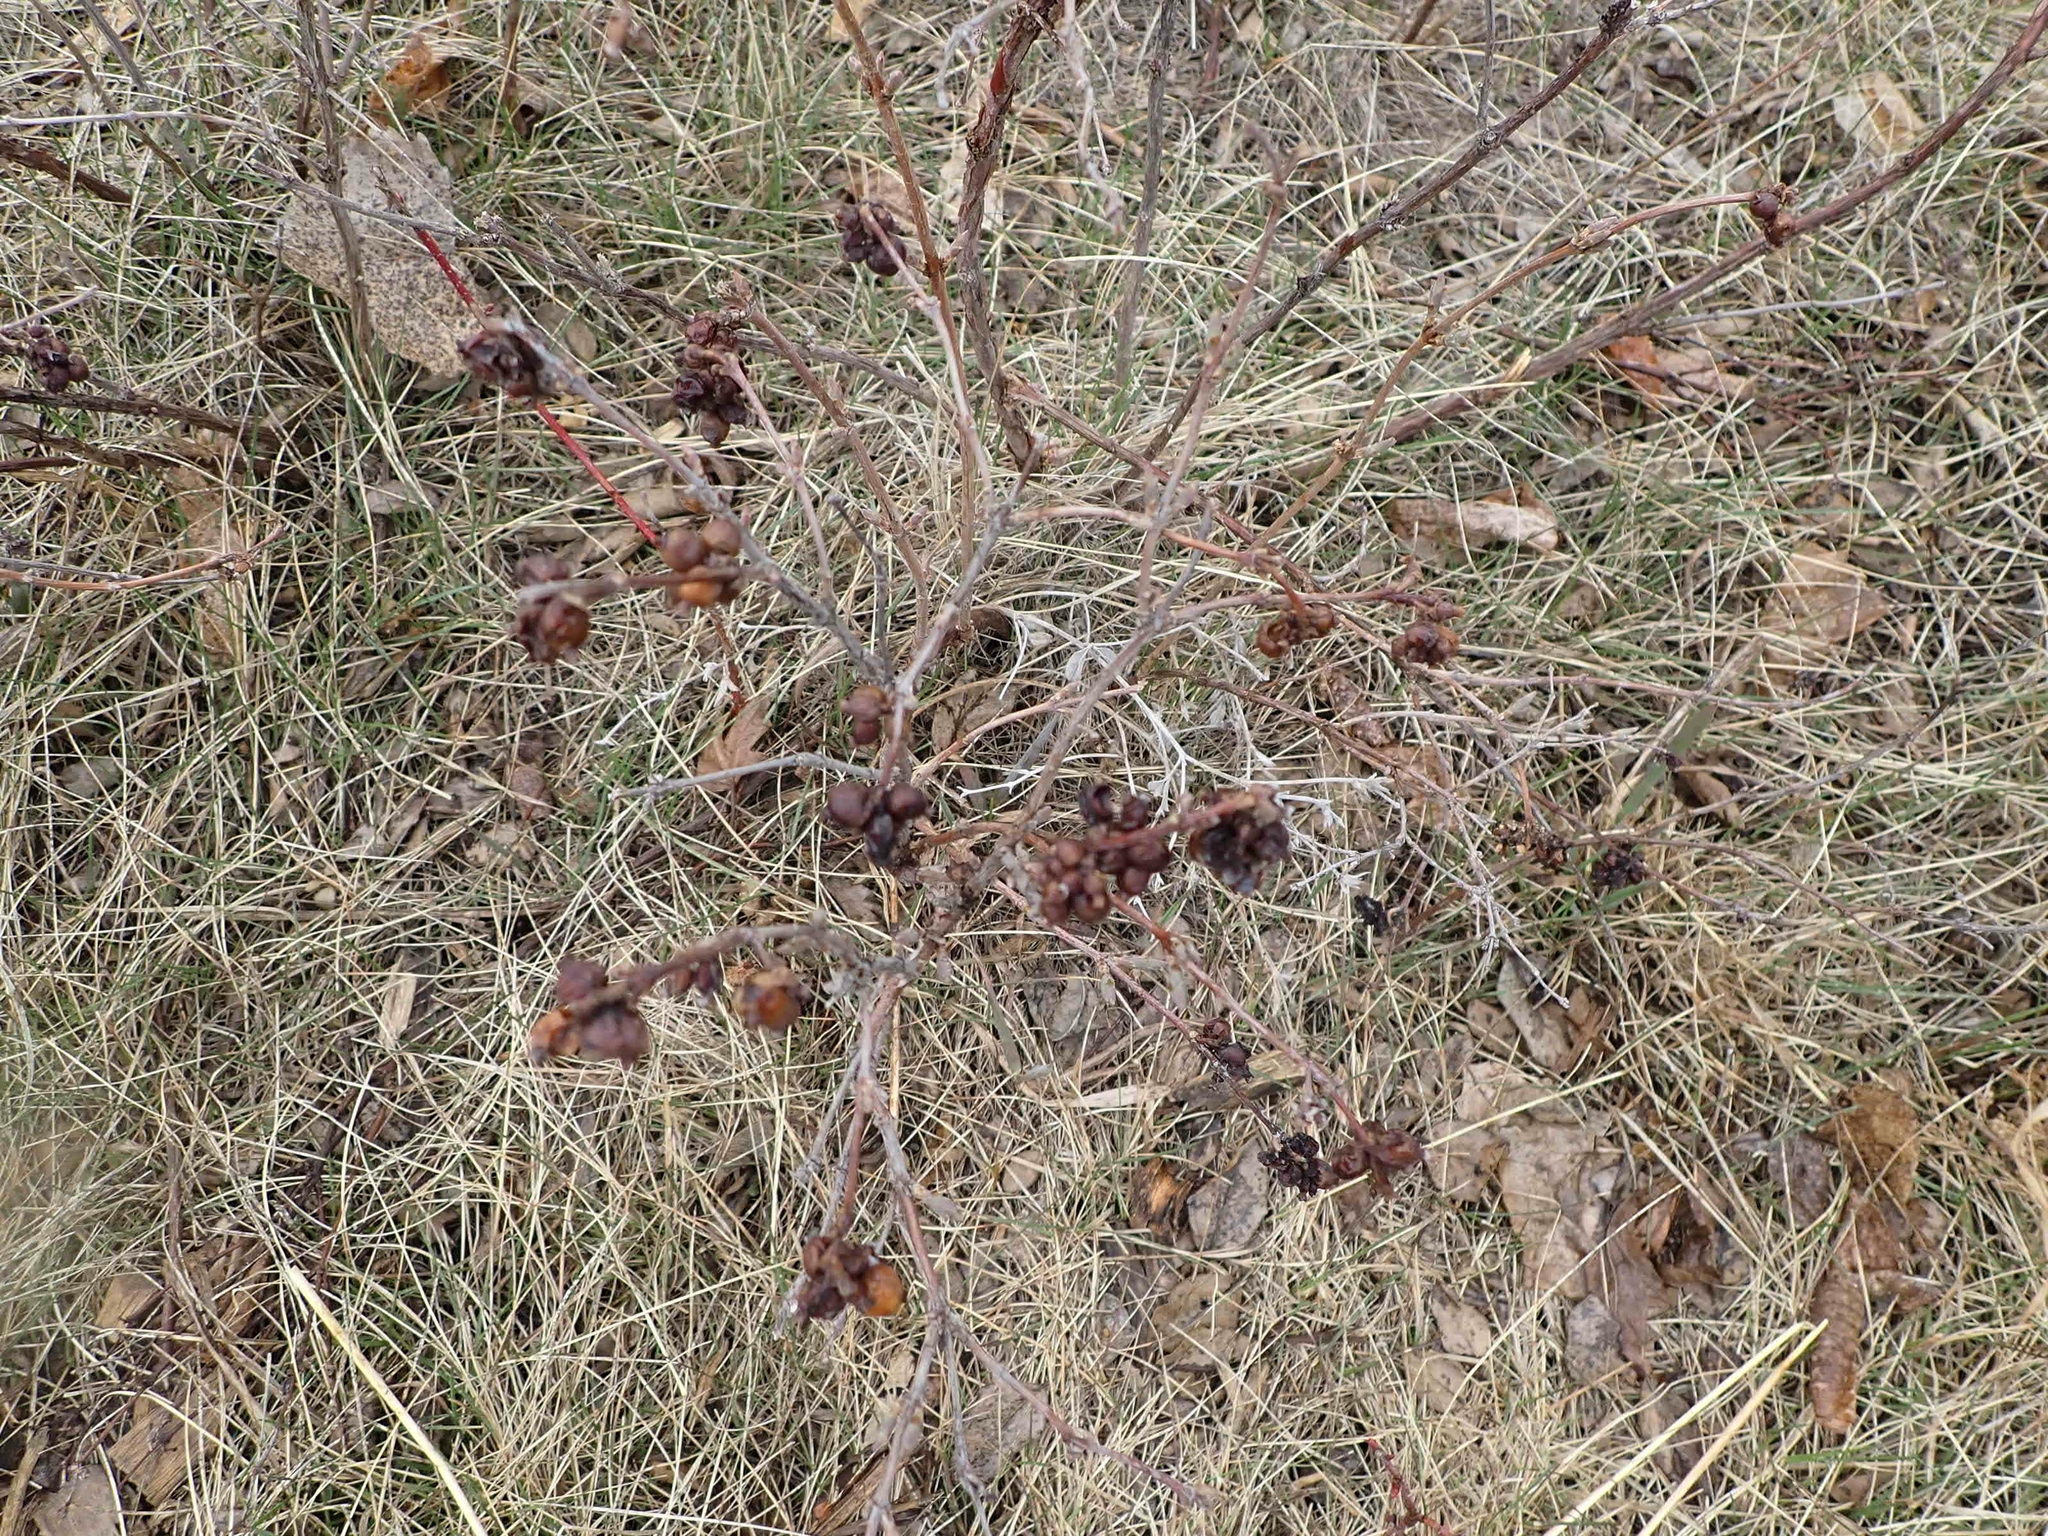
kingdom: Plantae
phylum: Tracheophyta
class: Magnoliopsida
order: Dipsacales
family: Caprifoliaceae
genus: Symphoricarpos
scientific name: Symphoricarpos occidentalis
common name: Wolfberry
